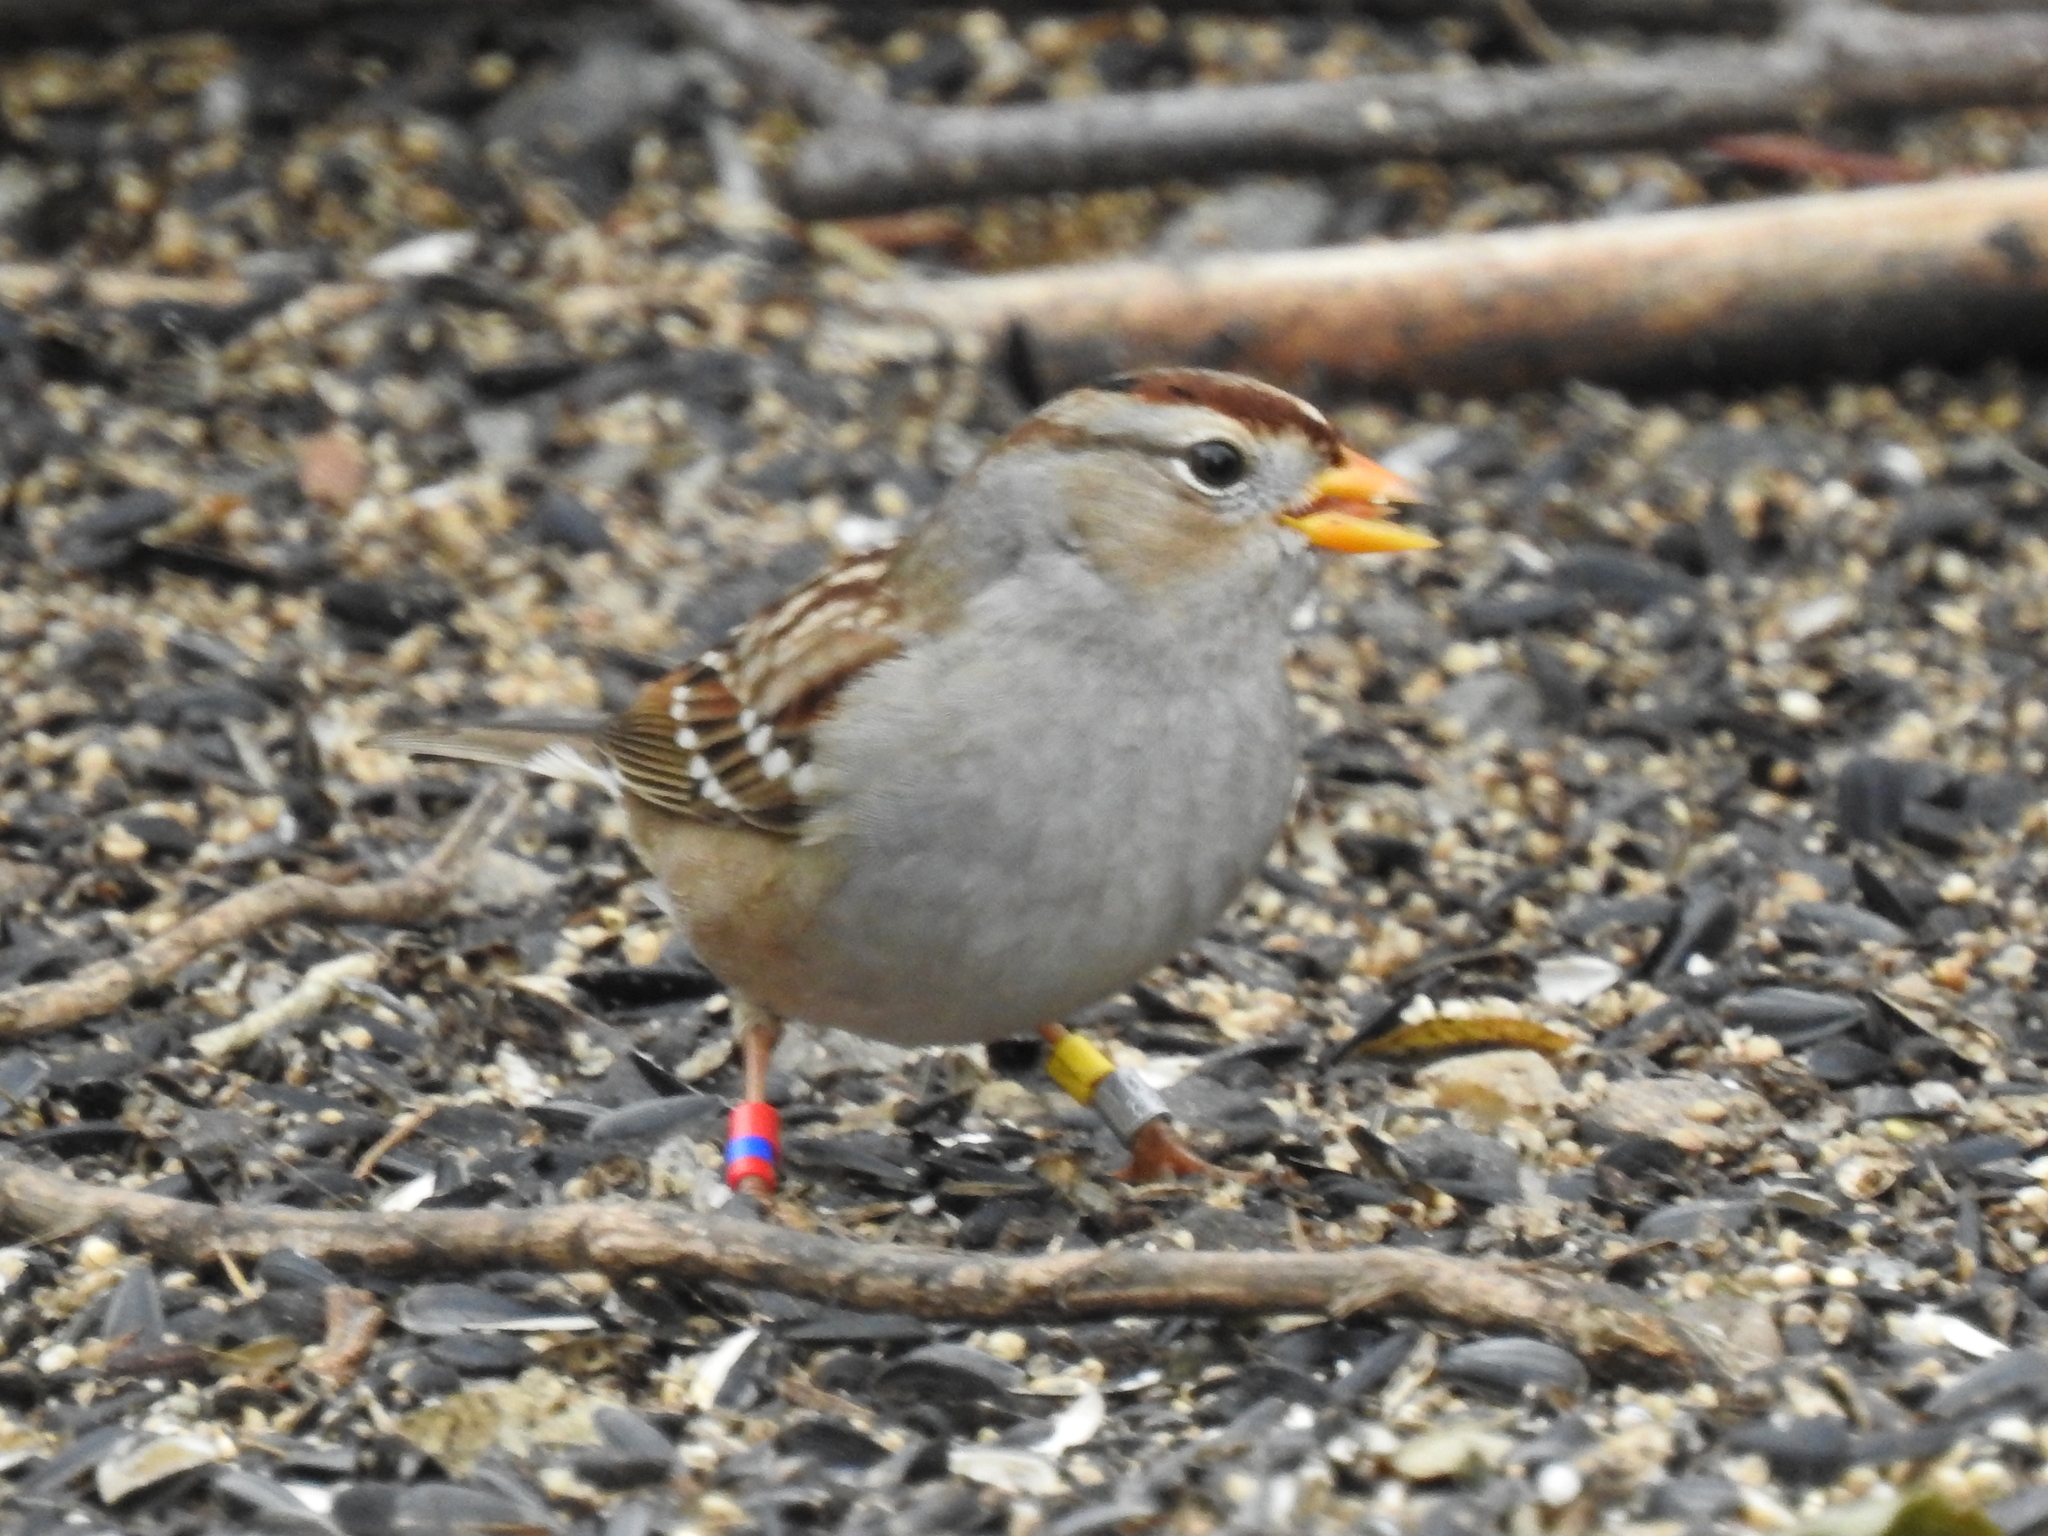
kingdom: Animalia
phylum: Chordata
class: Aves
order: Passeriformes
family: Passerellidae
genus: Zonotrichia
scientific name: Zonotrichia leucophrys
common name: White-crowned sparrow
